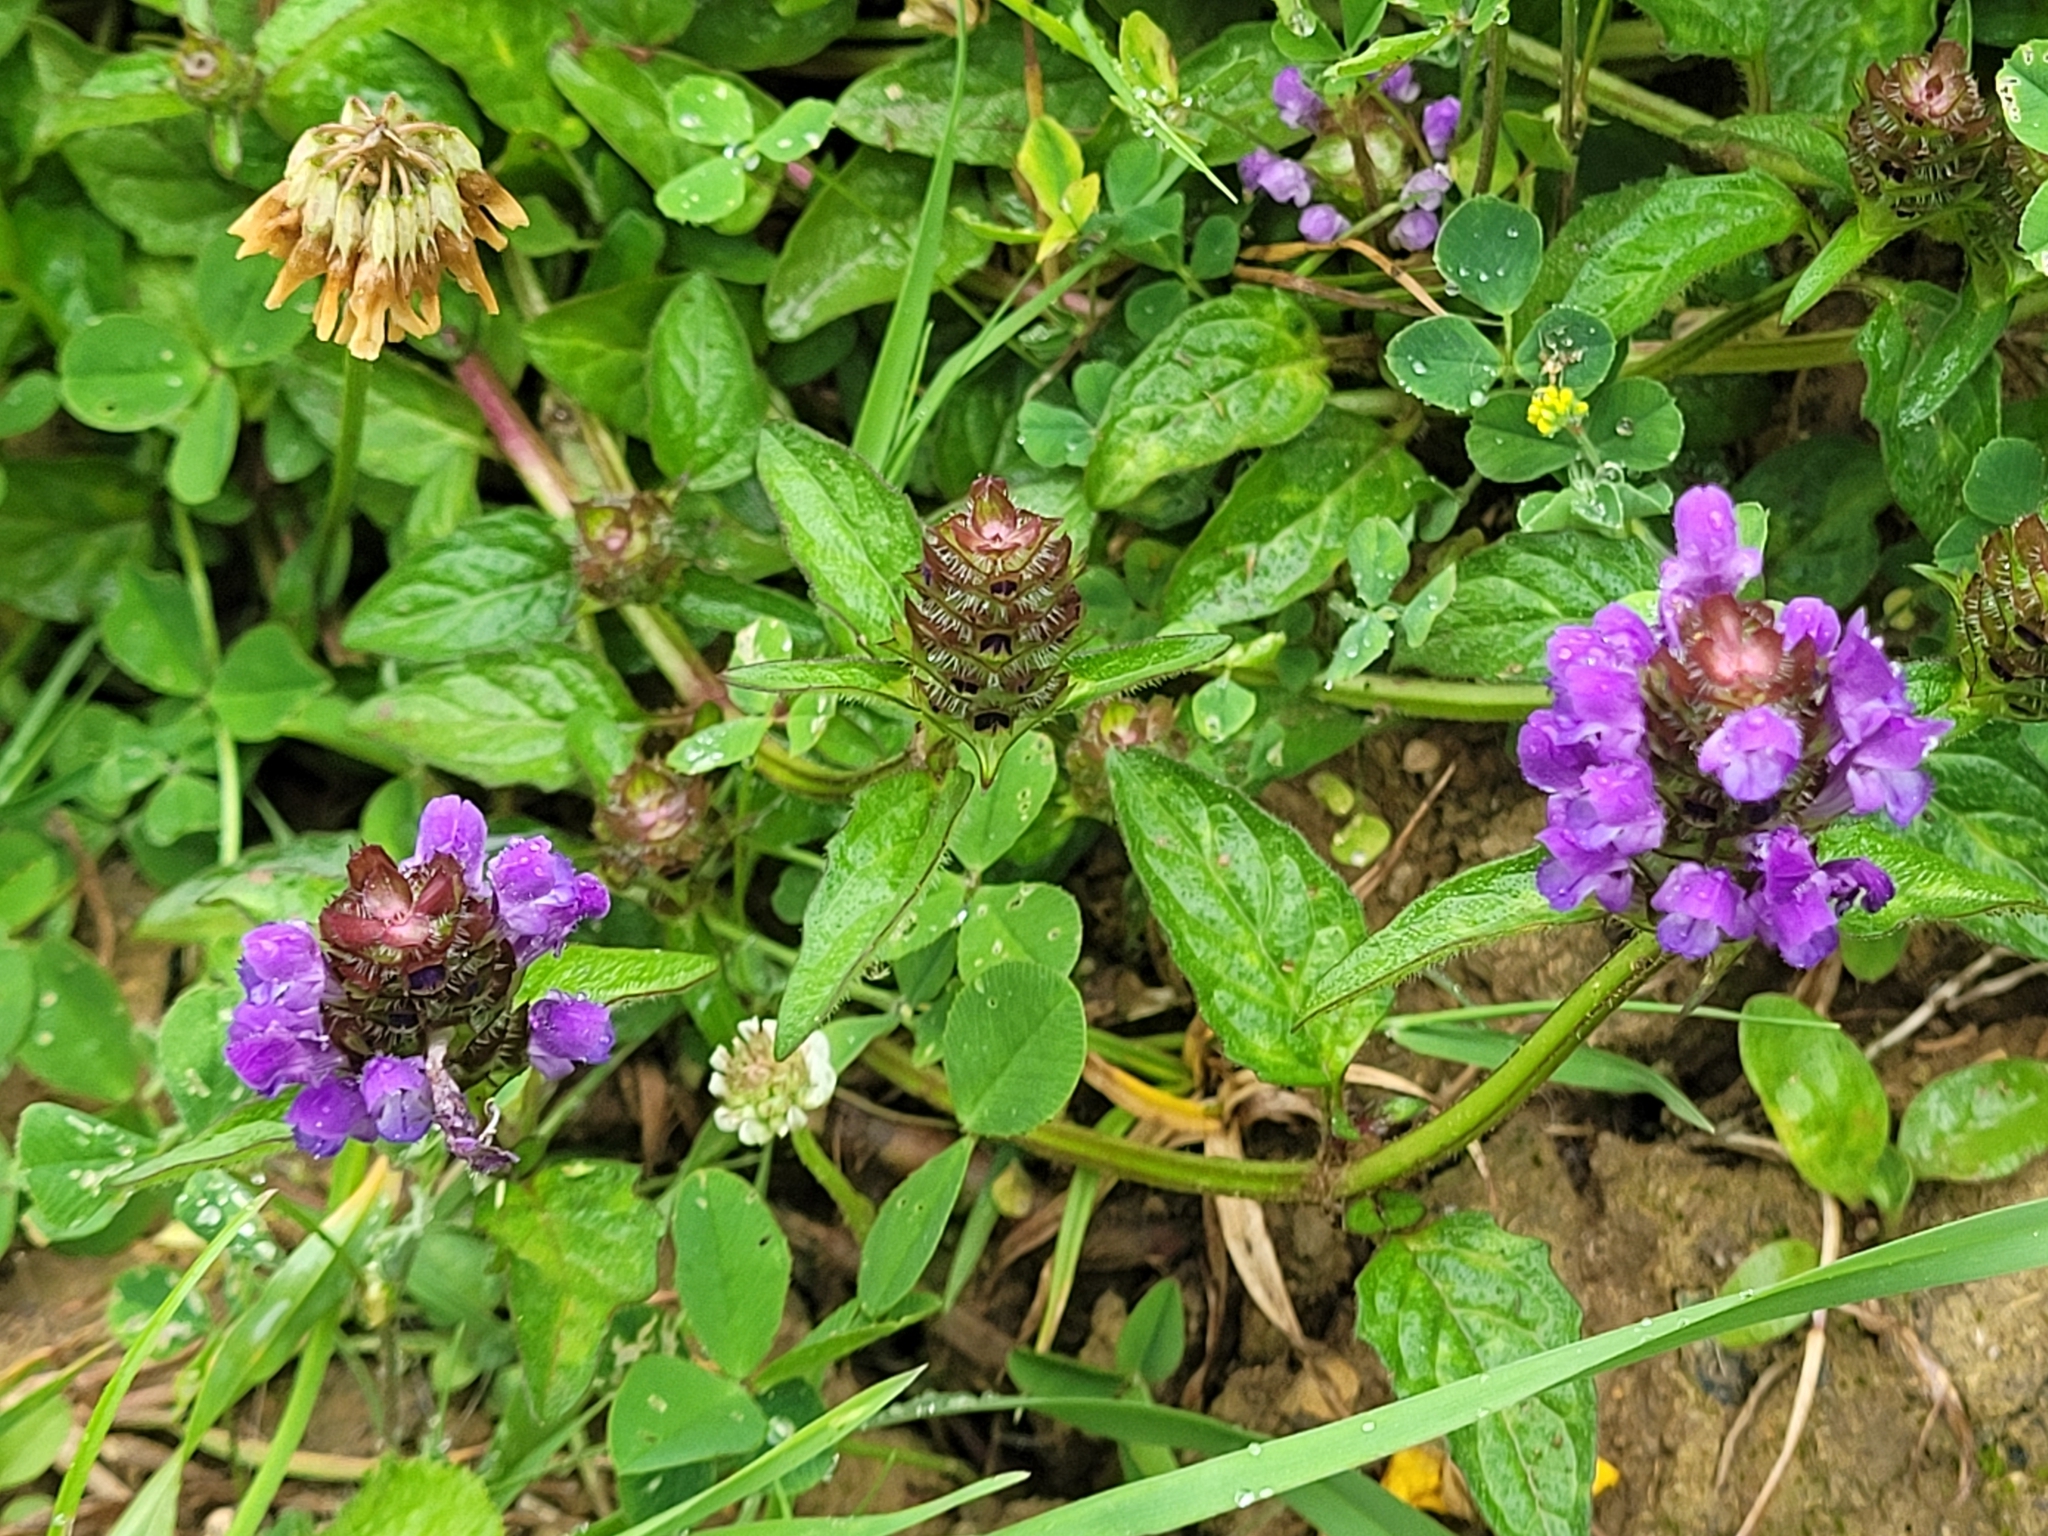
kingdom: Plantae
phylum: Tracheophyta
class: Magnoliopsida
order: Lamiales
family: Lamiaceae
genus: Prunella
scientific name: Prunella vulgaris
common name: Heal-all
